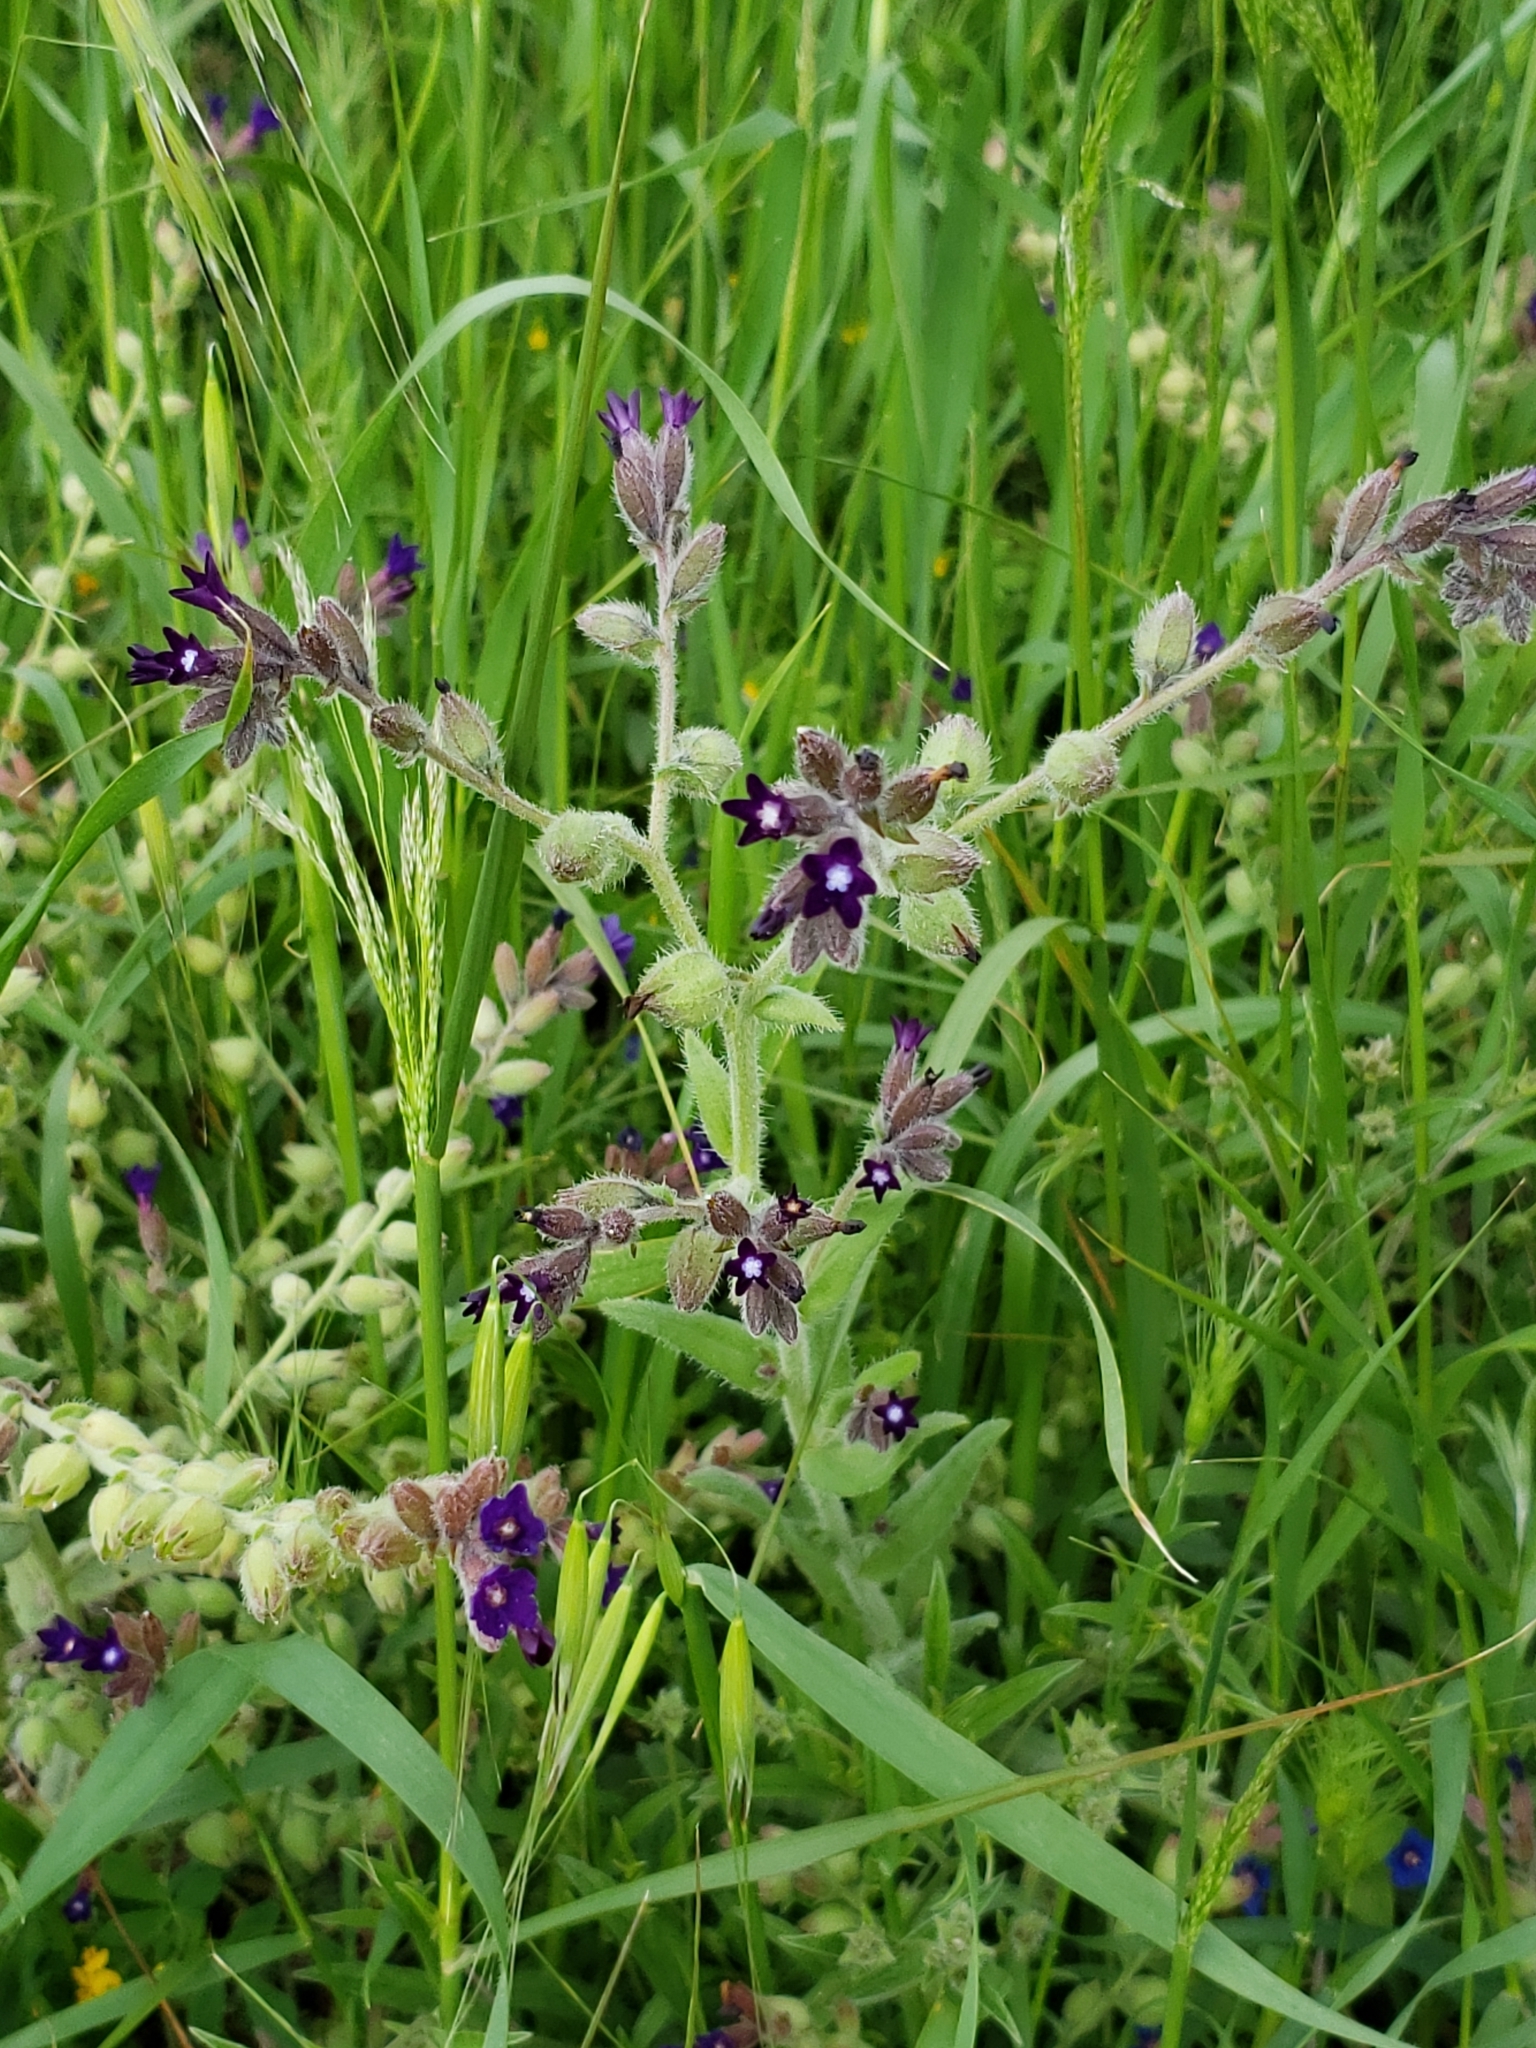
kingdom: Plantae
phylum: Tracheophyta
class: Magnoliopsida
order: Boraginales
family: Boraginaceae
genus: Anchusa
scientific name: Anchusa undulata
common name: Undulate alkanet
